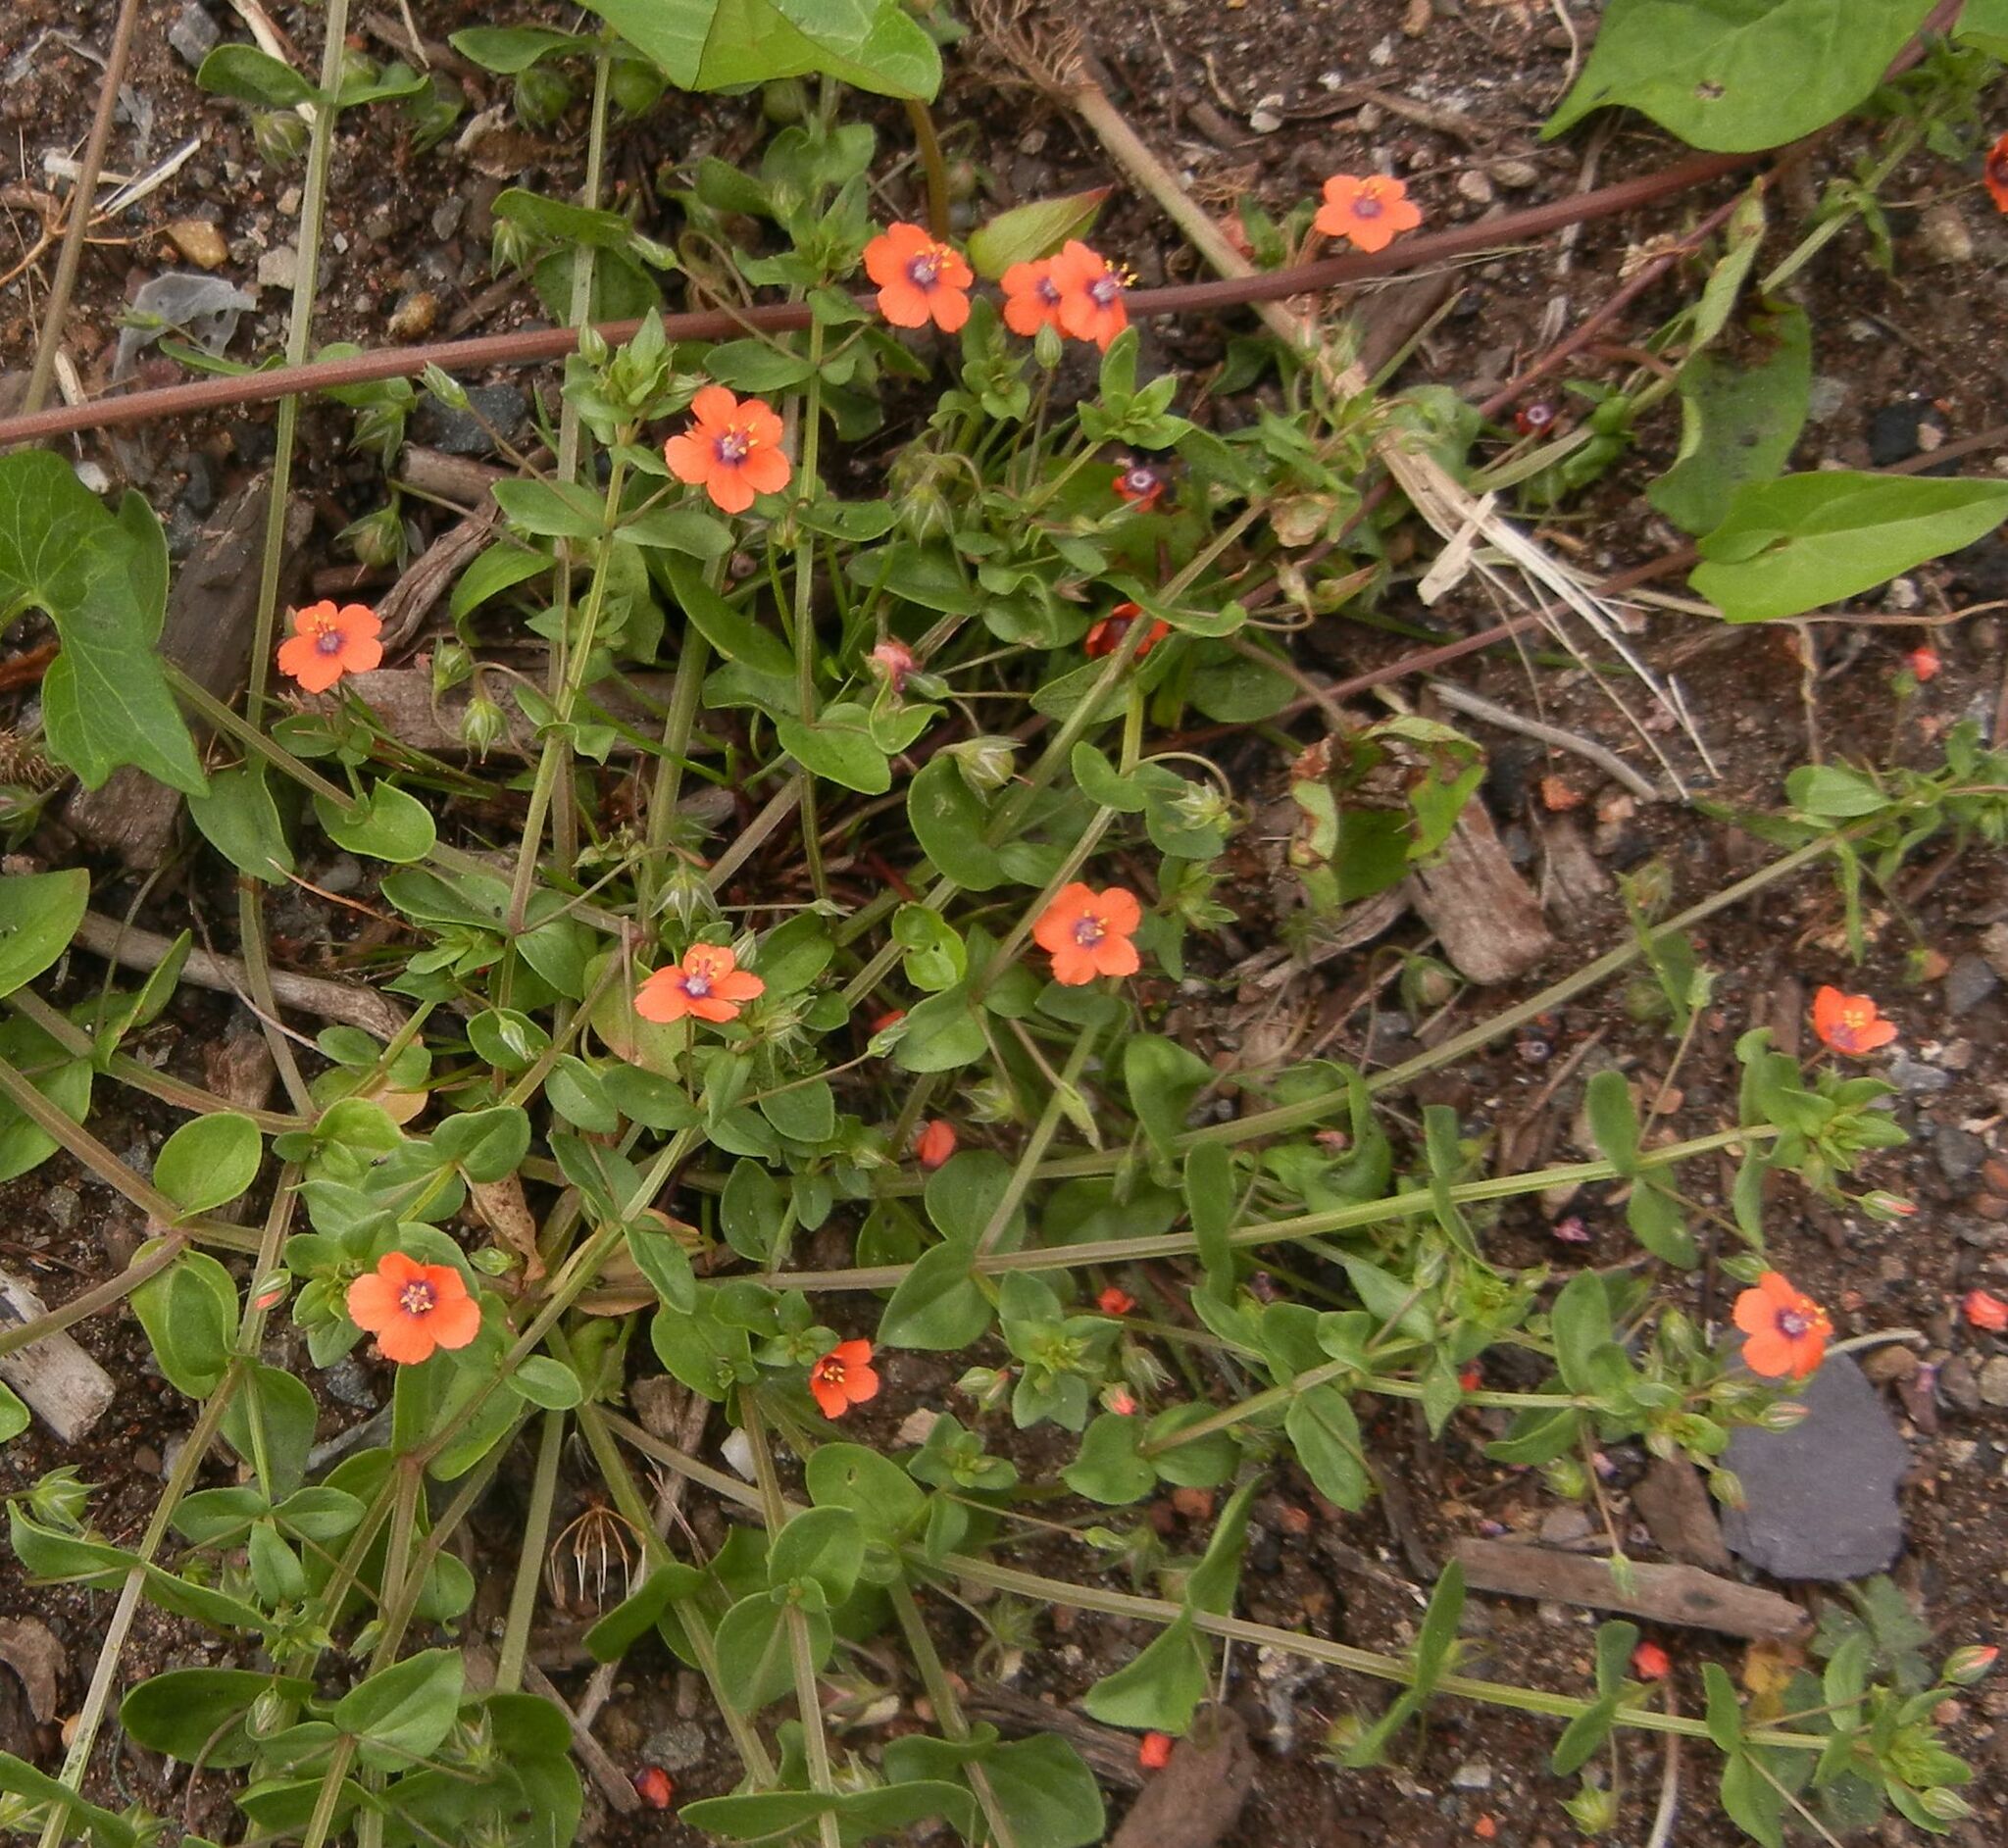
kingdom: Plantae
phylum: Tracheophyta
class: Magnoliopsida
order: Ericales
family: Primulaceae
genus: Lysimachia
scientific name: Lysimachia arvensis
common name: Scarlet pimpernel
